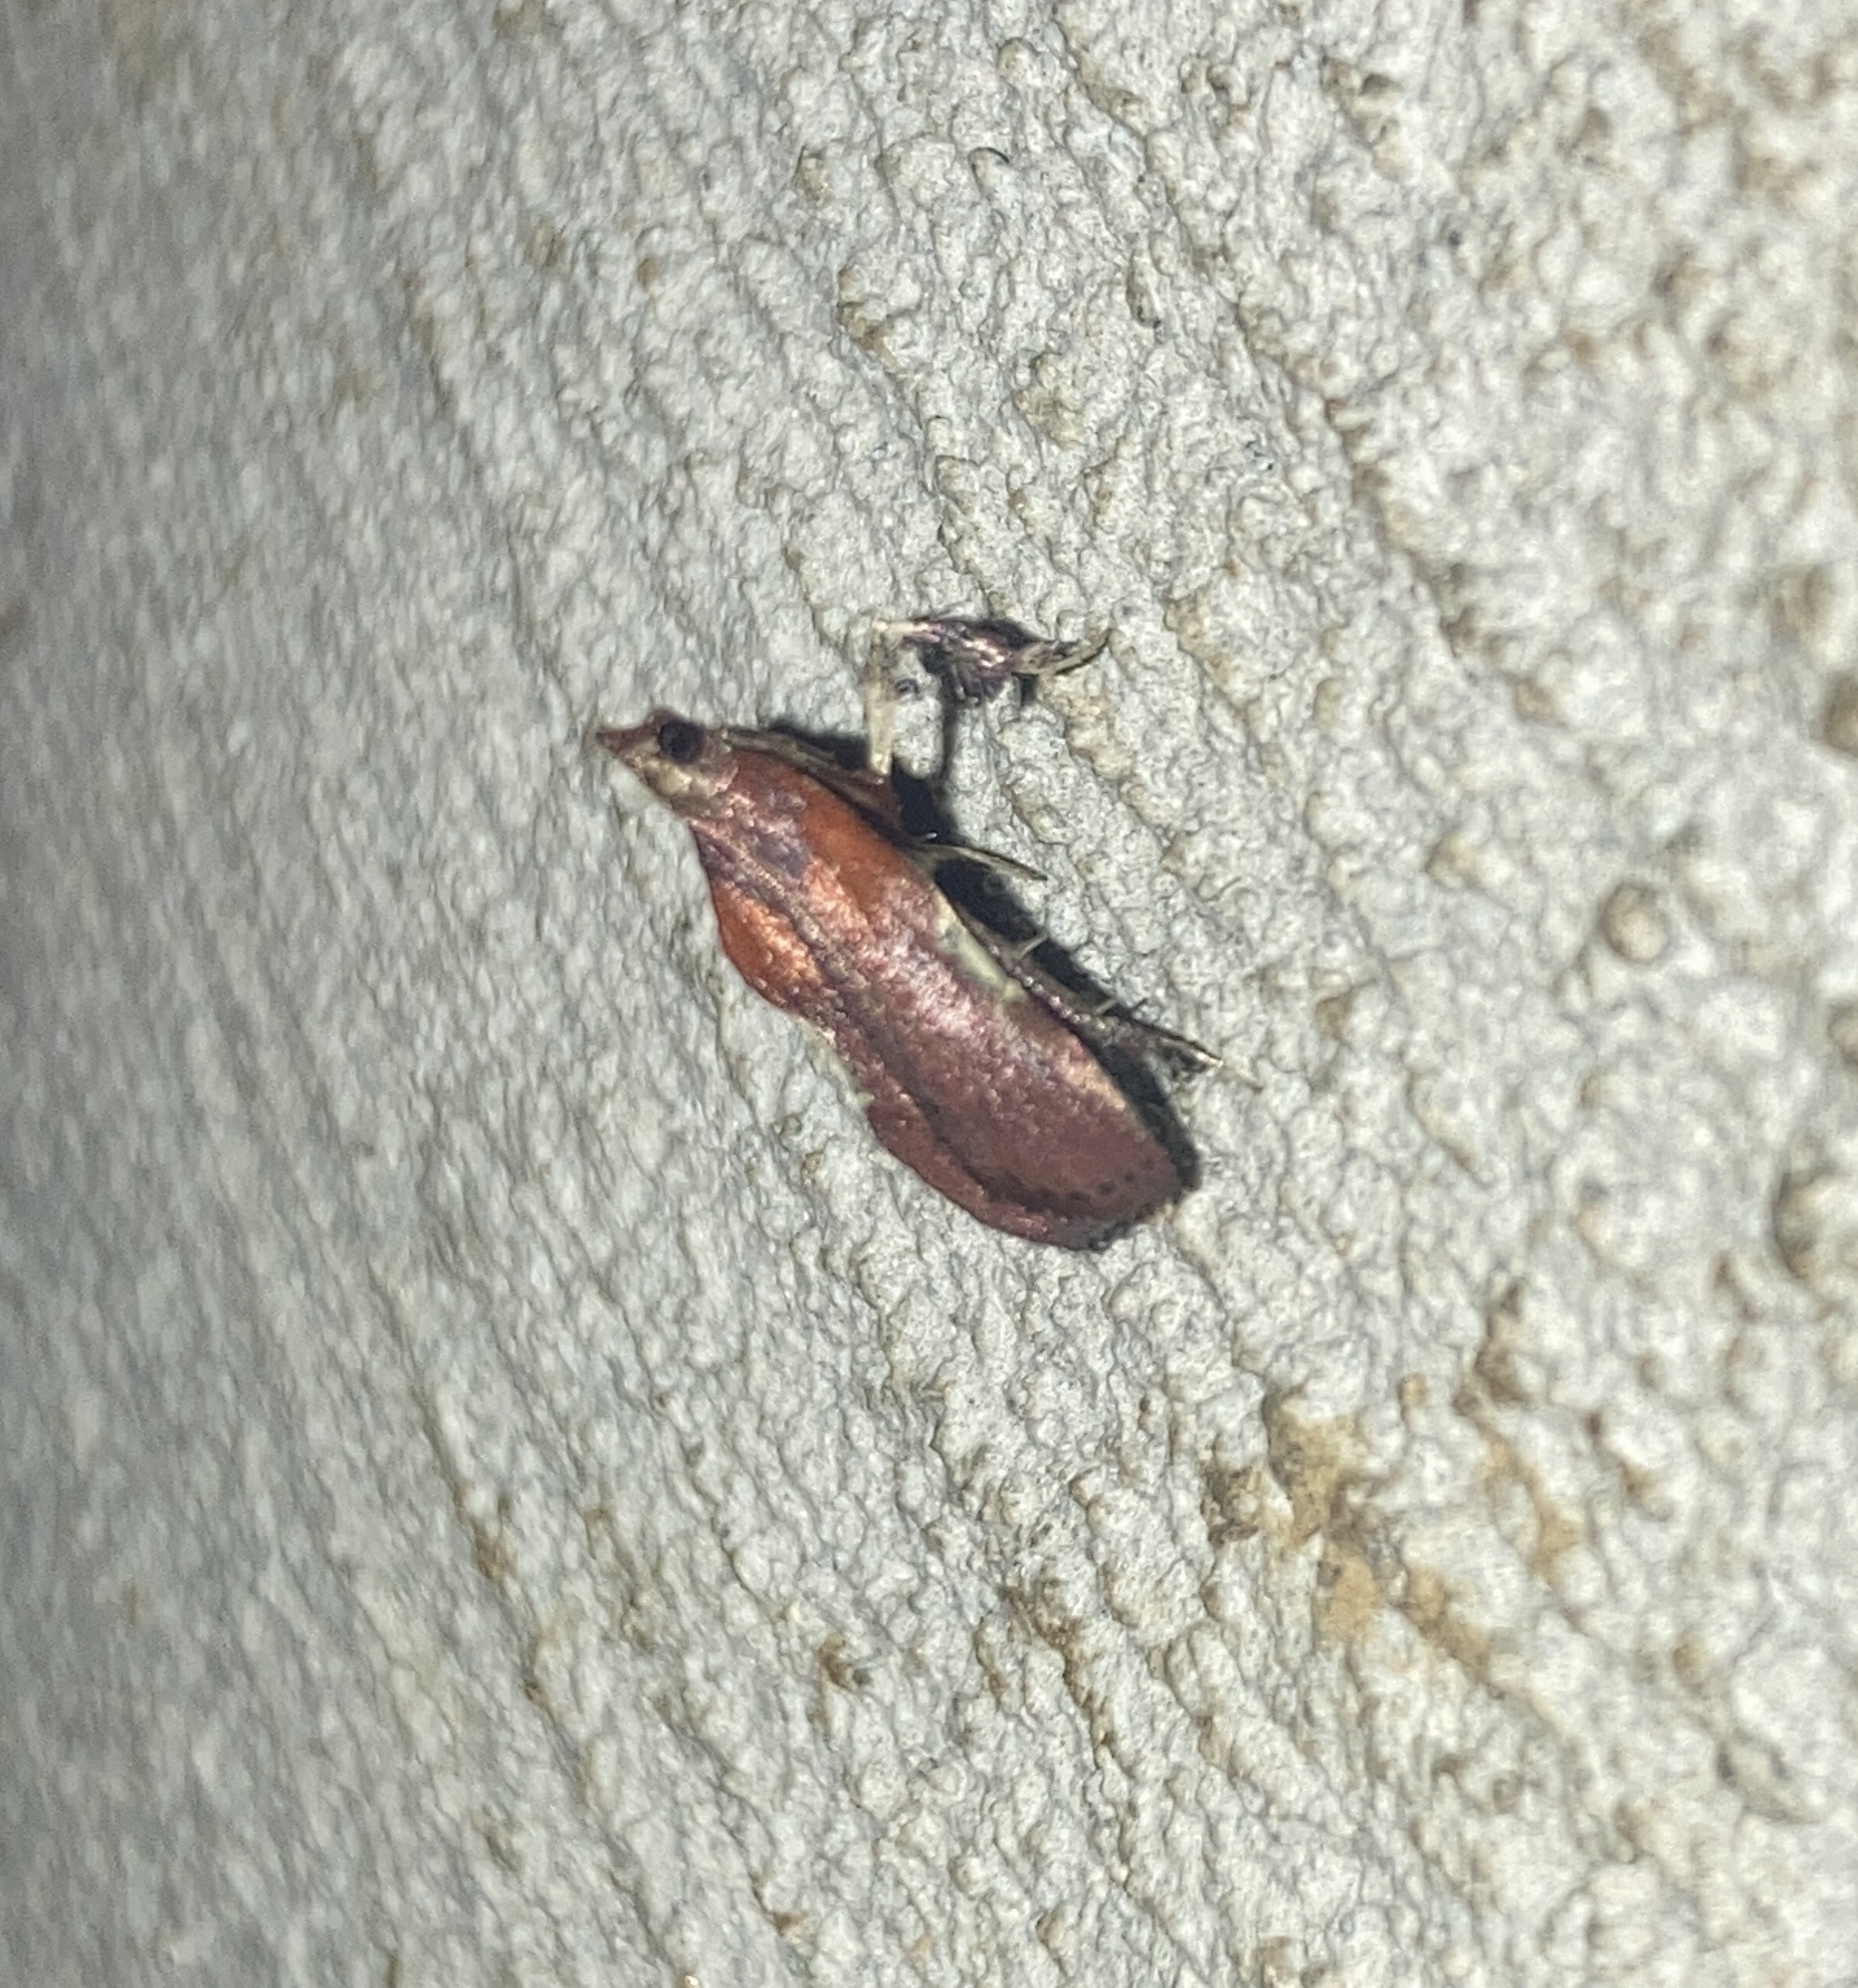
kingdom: Animalia
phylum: Arthropoda
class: Insecta
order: Lepidoptera
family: Pyralidae
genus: Galasa
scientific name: Galasa nigrinodis
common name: Boxwood leaftier moth
